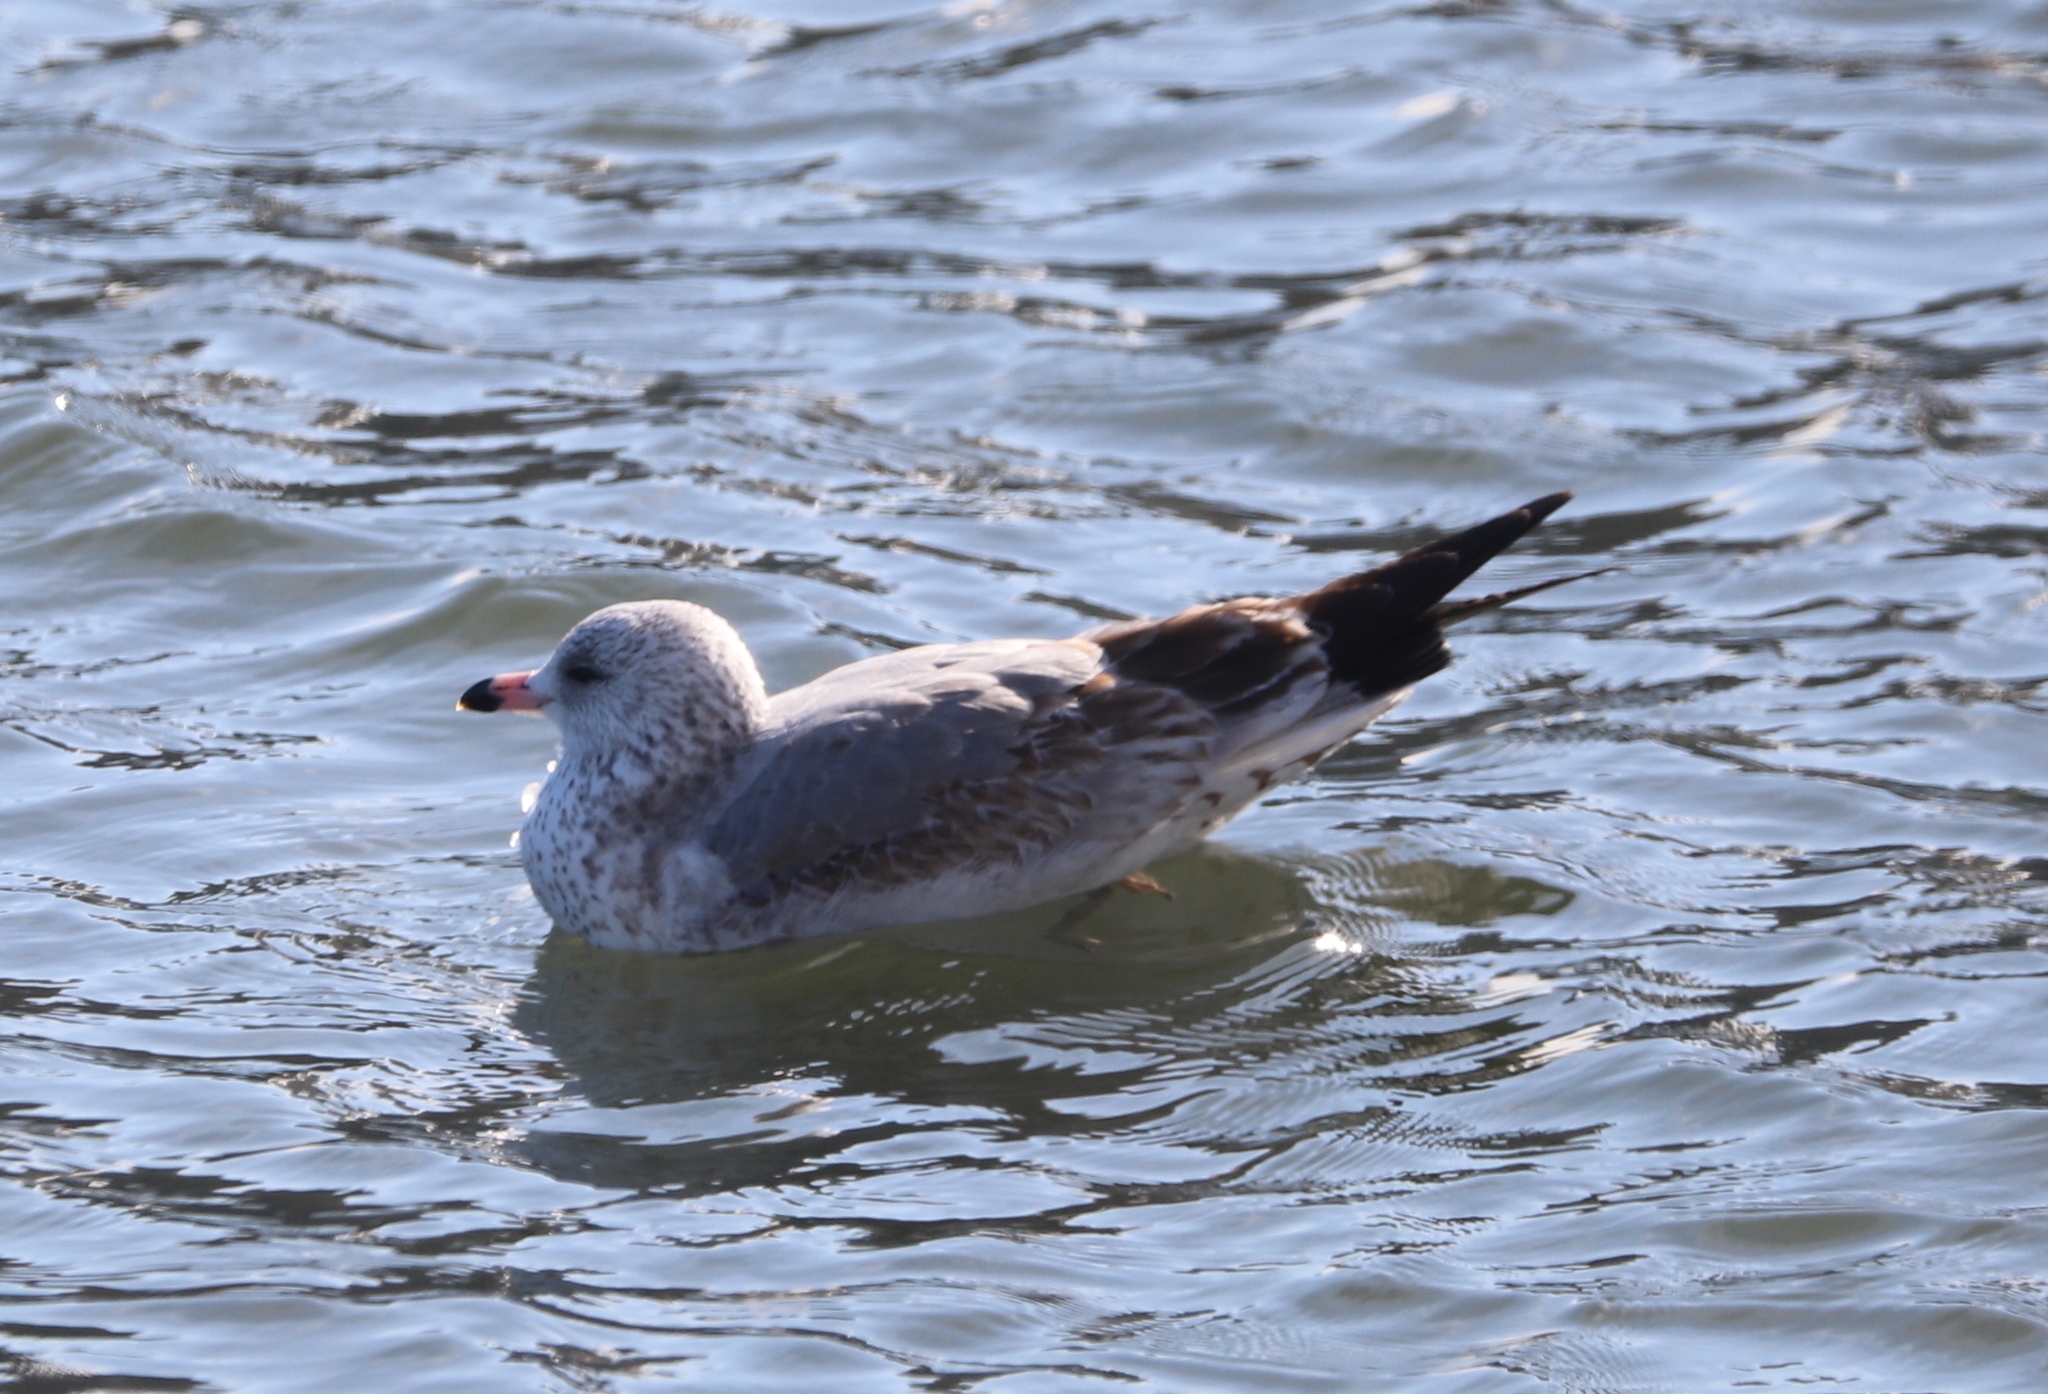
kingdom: Animalia
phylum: Chordata
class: Aves
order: Charadriiformes
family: Laridae
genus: Larus
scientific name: Larus delawarensis
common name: Ring-billed gull
